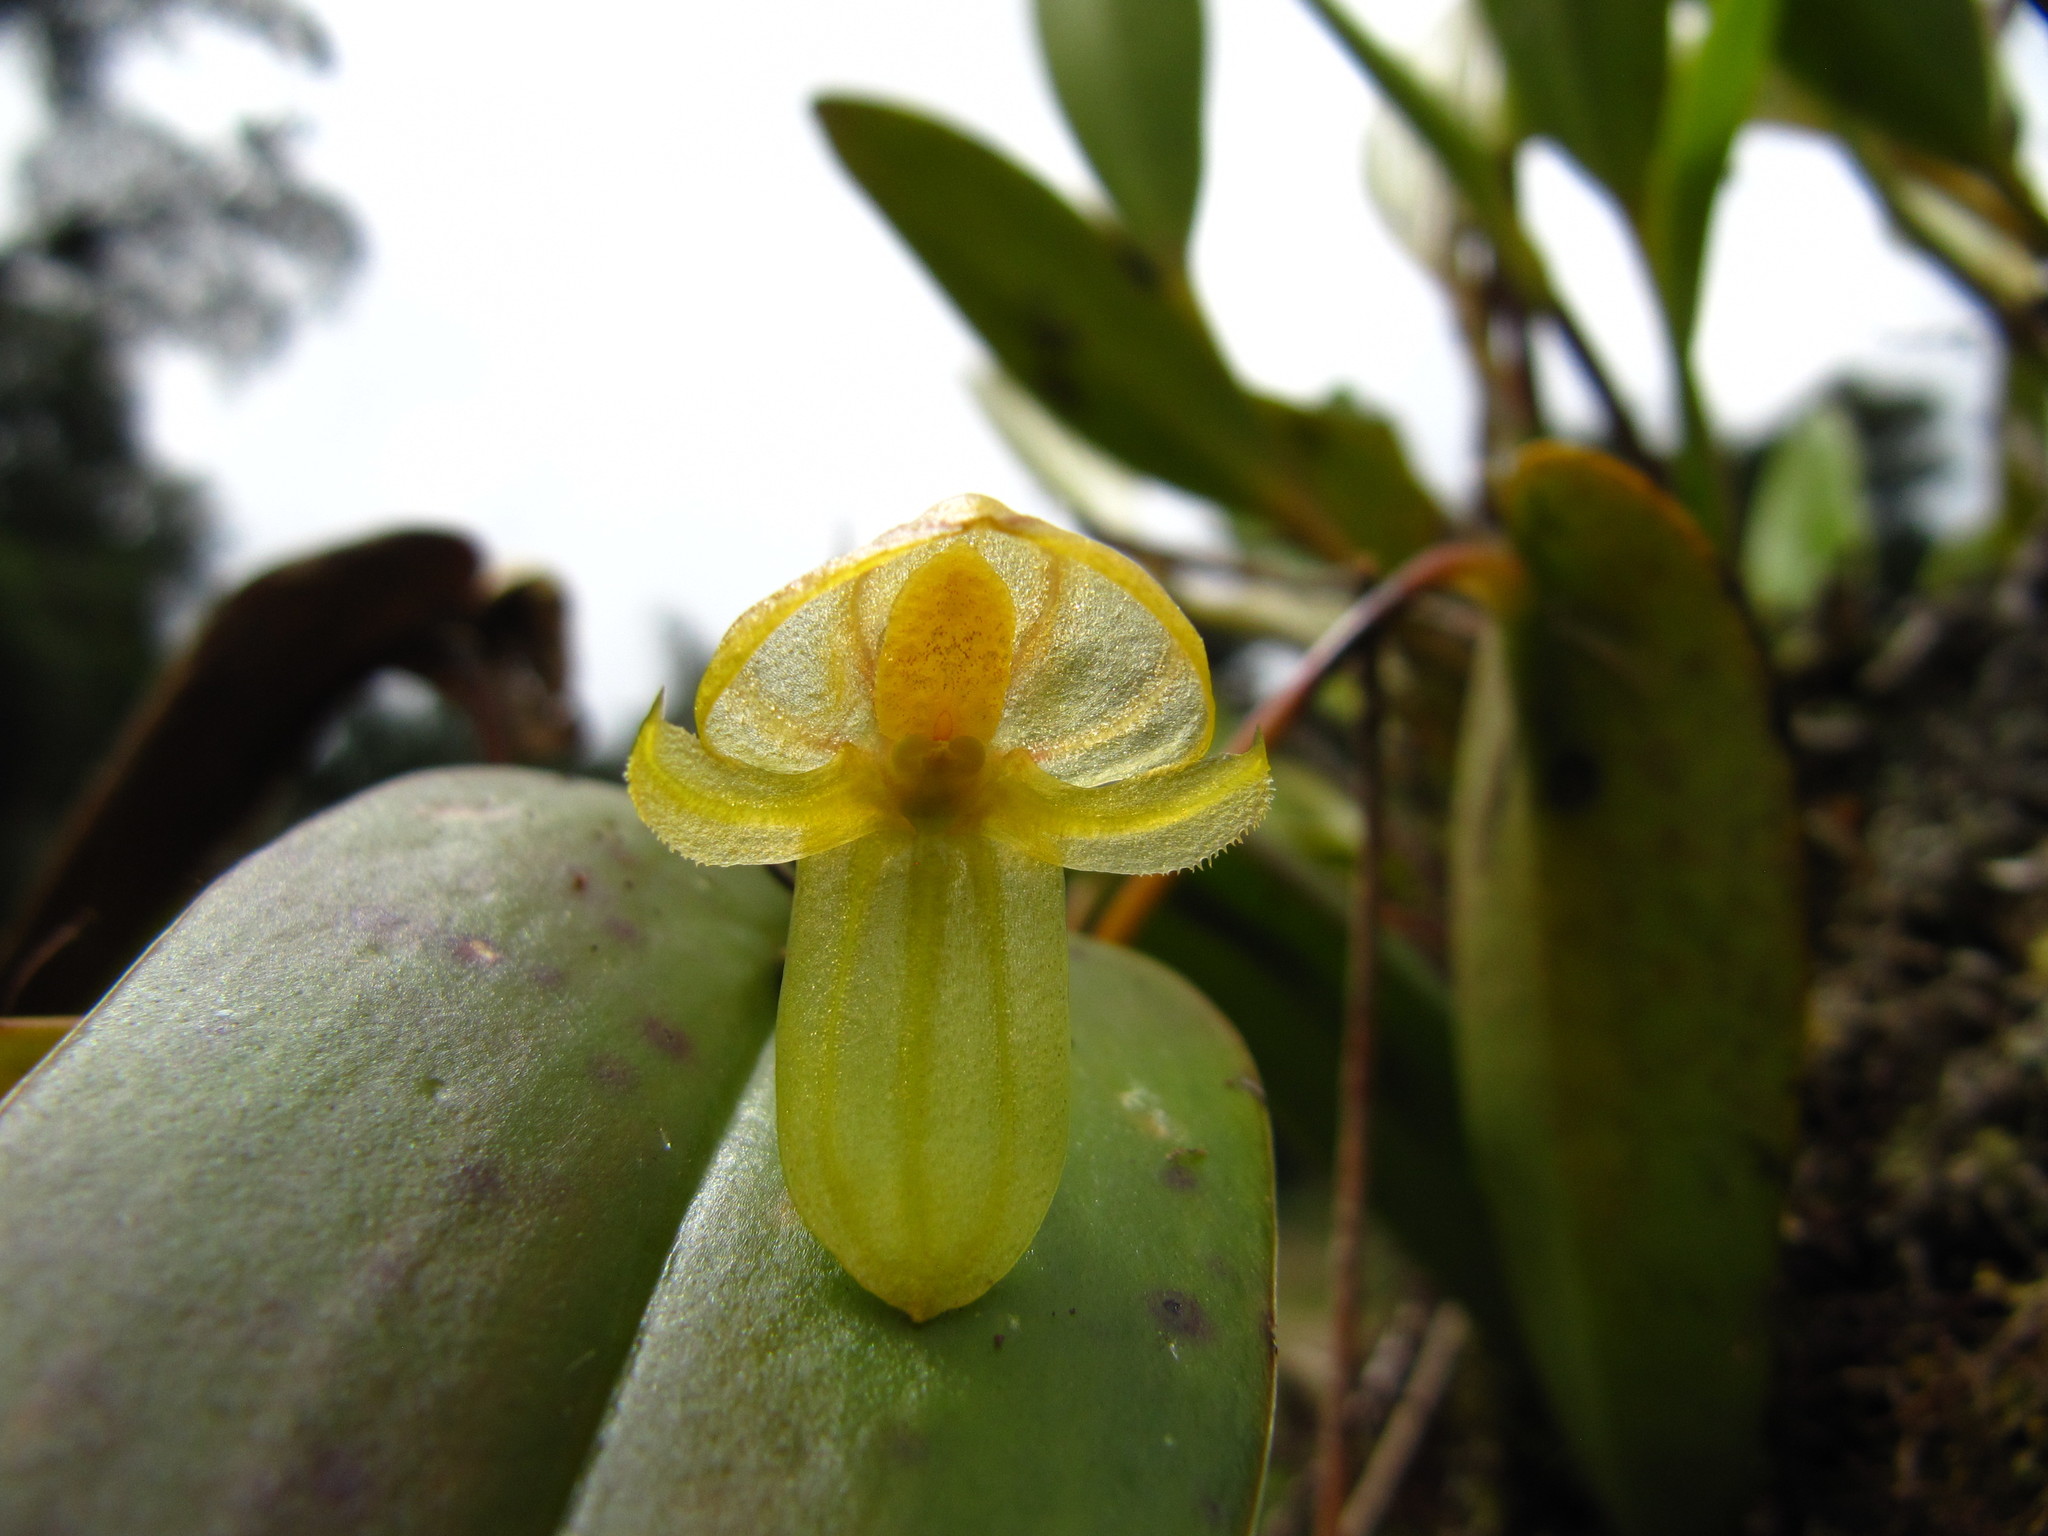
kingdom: Plantae
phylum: Tracheophyta
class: Liliopsida
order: Asparagales
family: Orchidaceae
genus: Pleurothallis
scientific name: Pleurothallis octavioi
